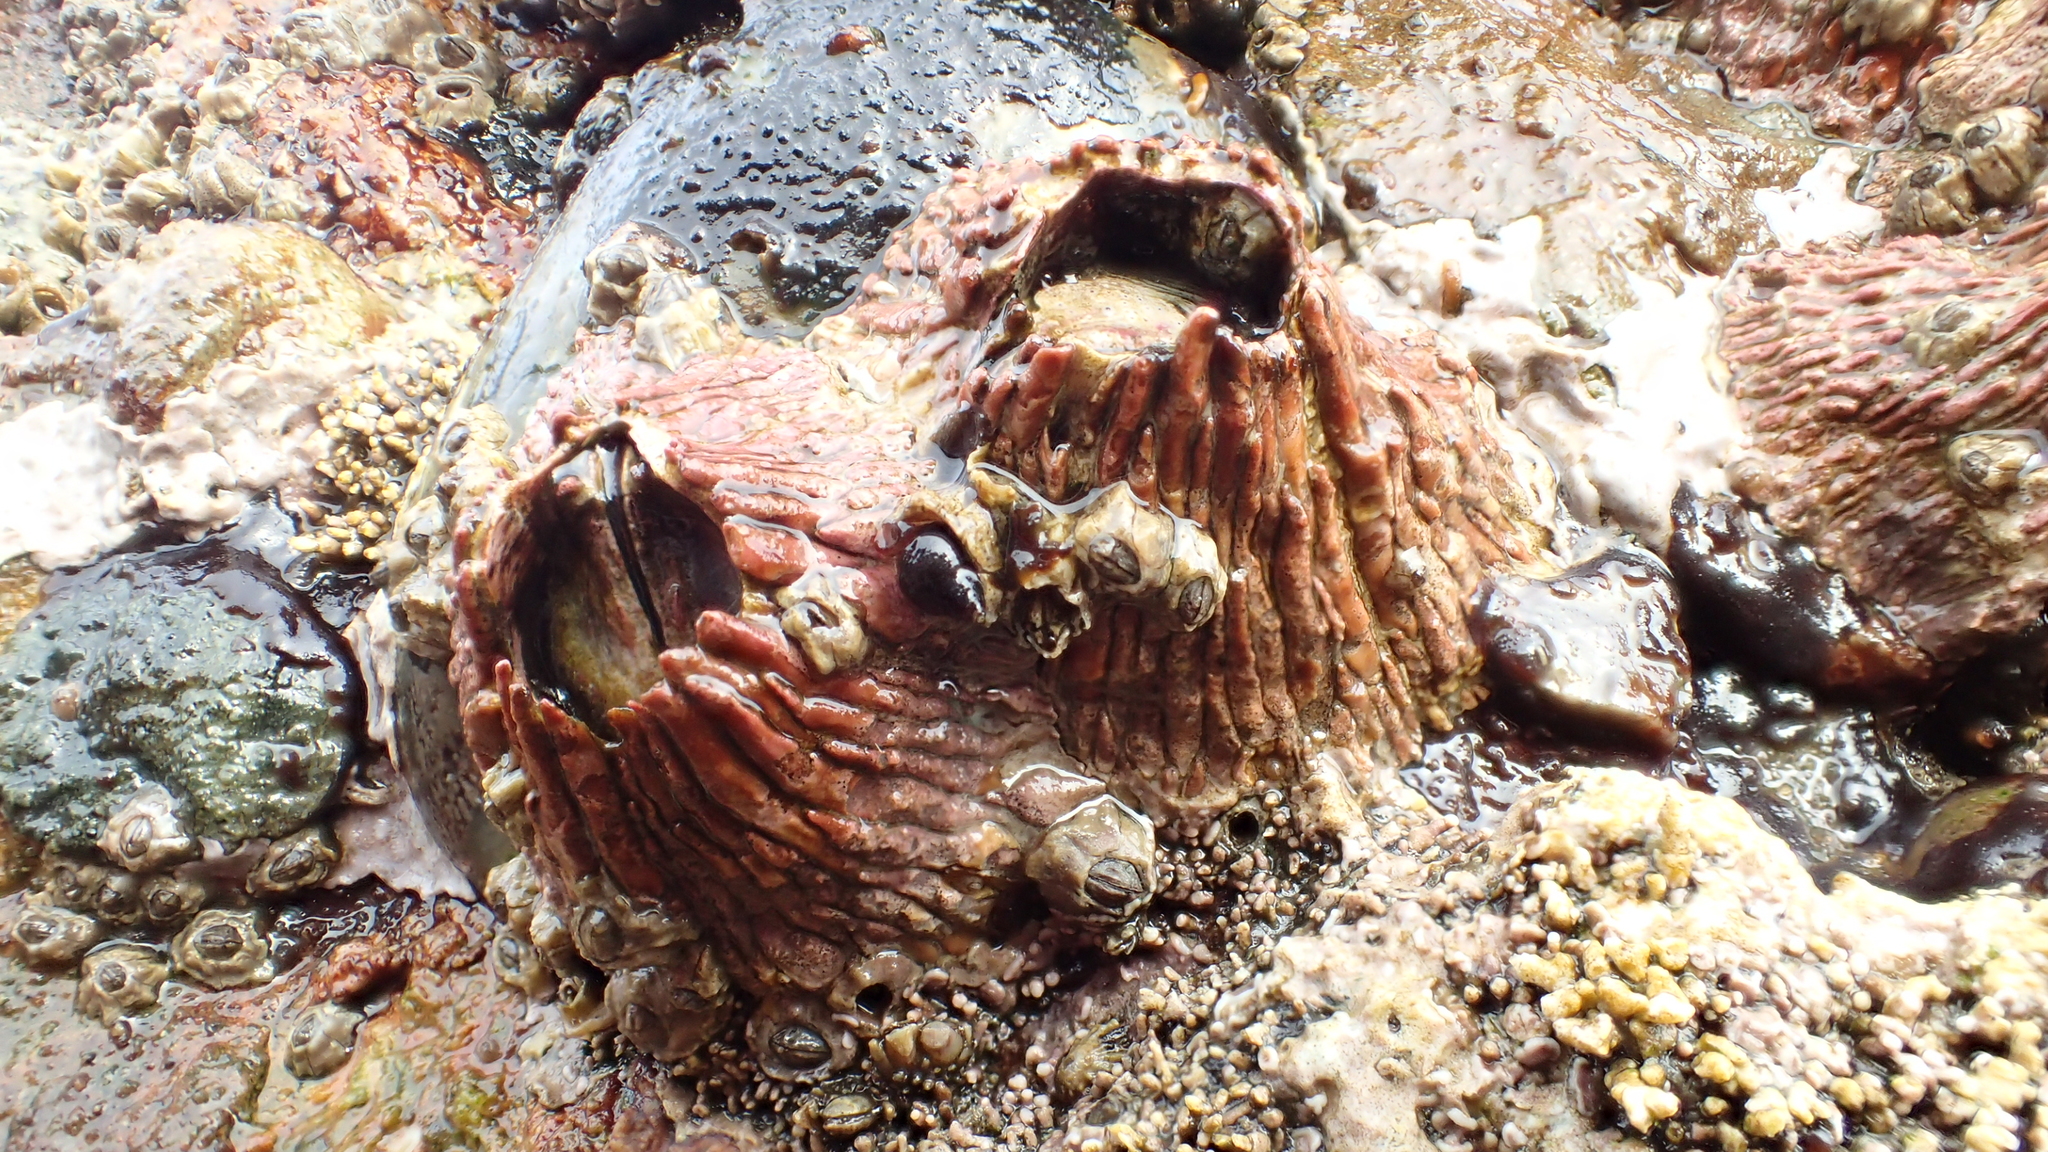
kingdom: Animalia
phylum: Arthropoda
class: Maxillopoda
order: Sessilia
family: Tetraclitidae
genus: Tetraclita
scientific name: Tetraclita rubescens
